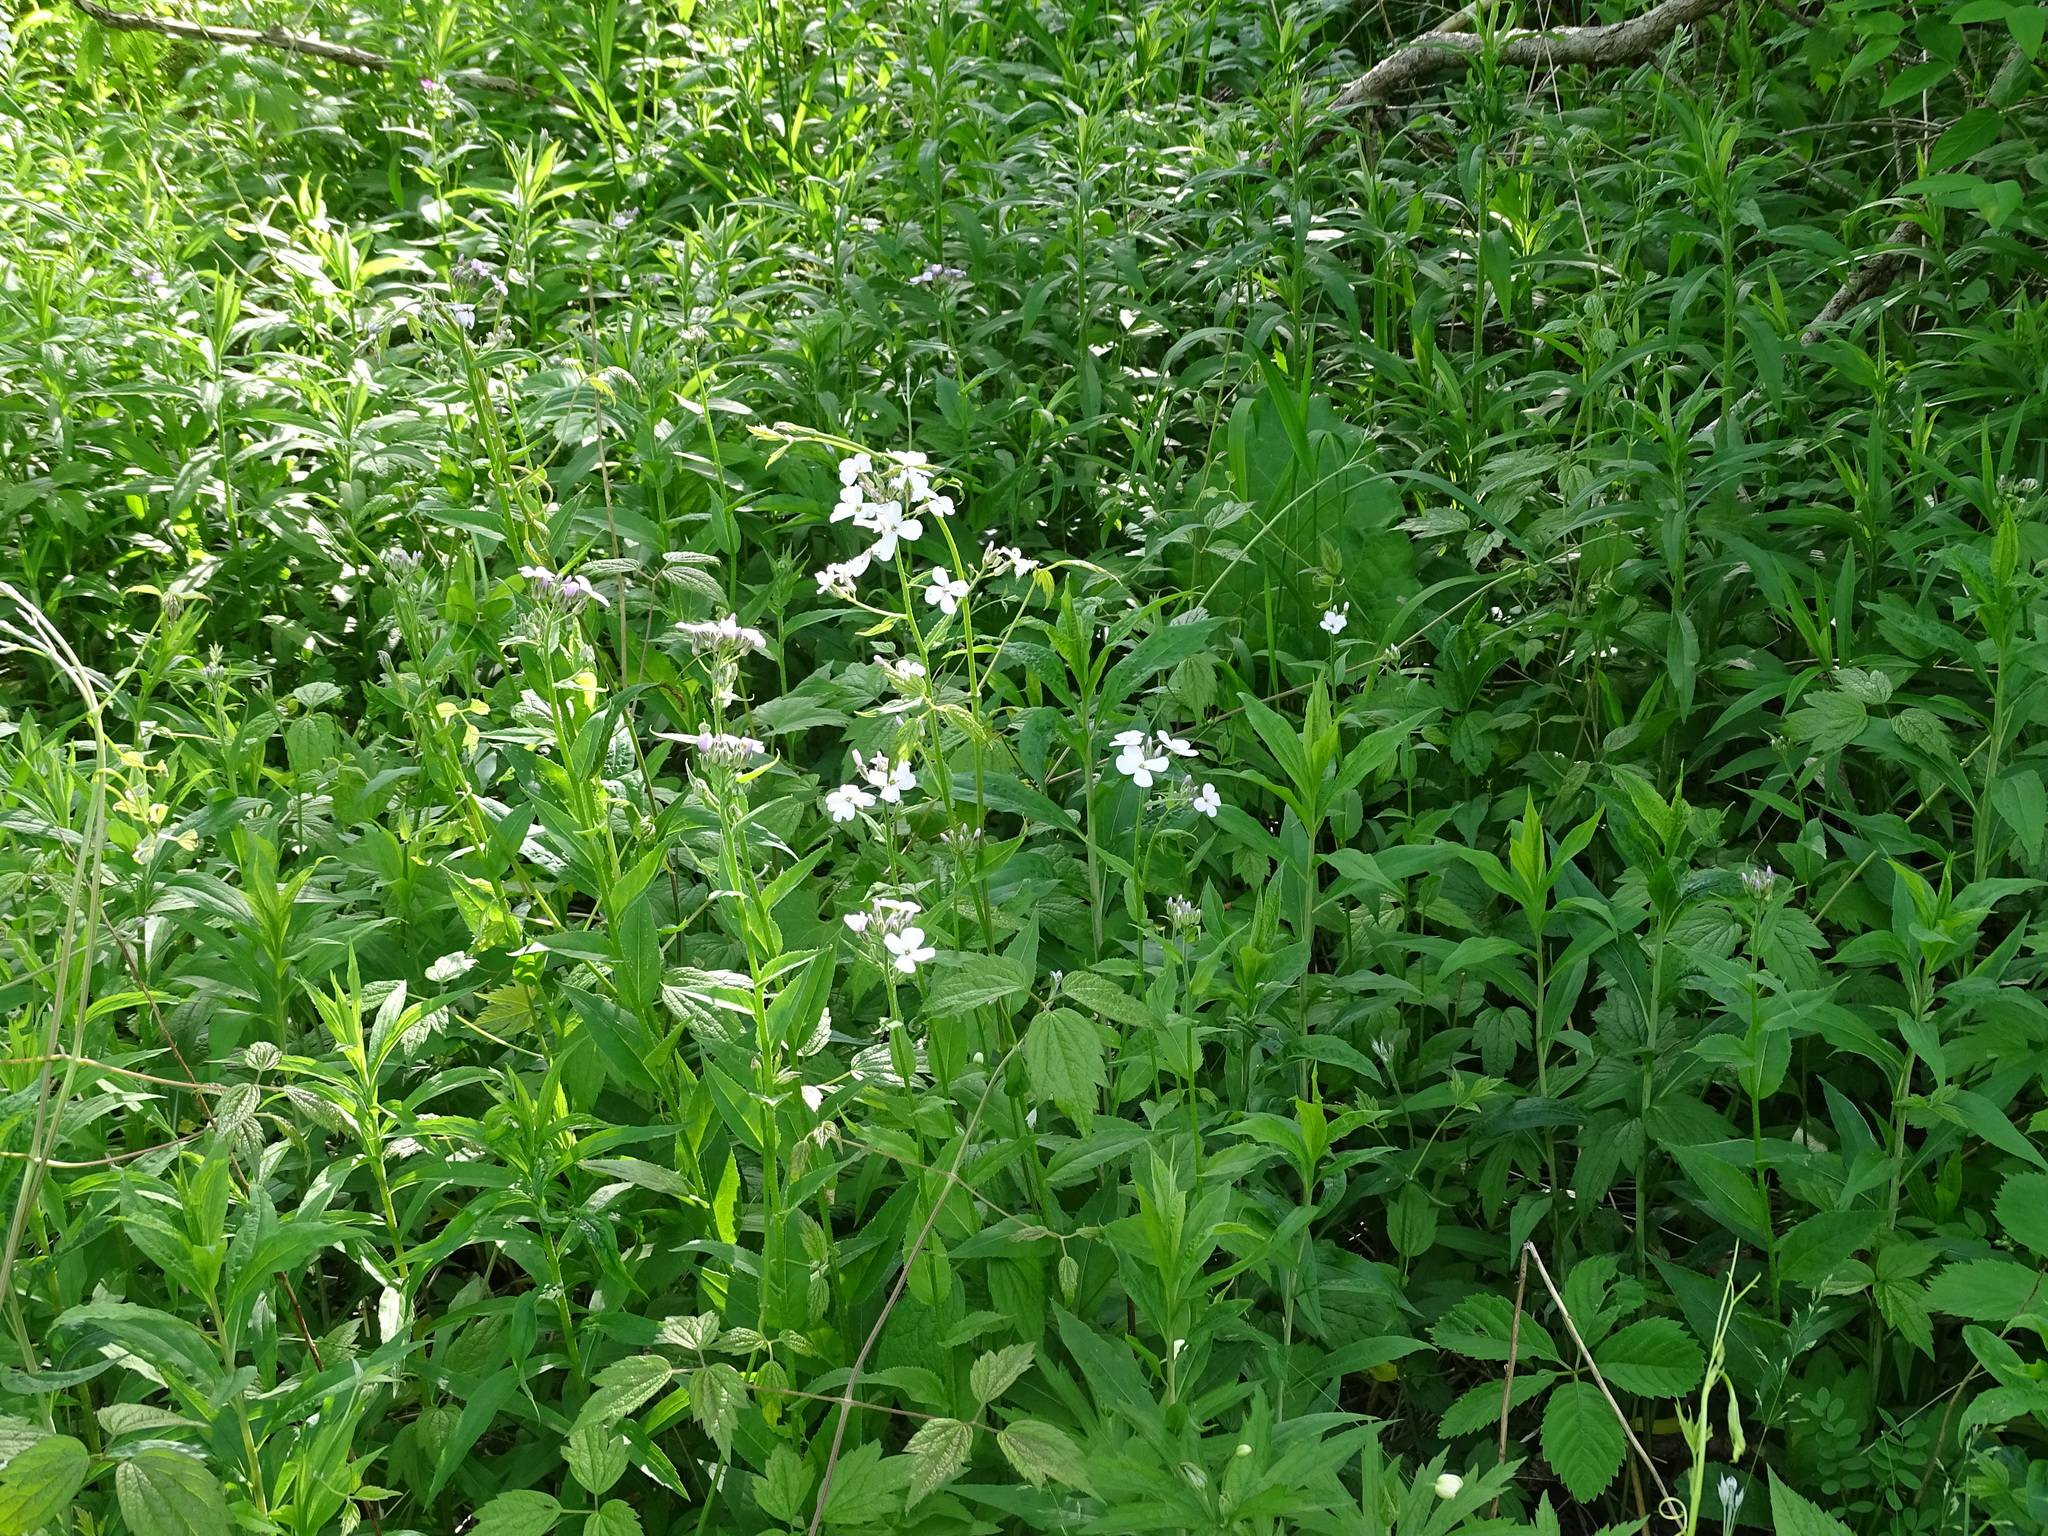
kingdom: Plantae
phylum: Tracheophyta
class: Magnoliopsida
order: Brassicales
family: Brassicaceae
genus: Hesperis
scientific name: Hesperis matronalis
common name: Dame's-violet
